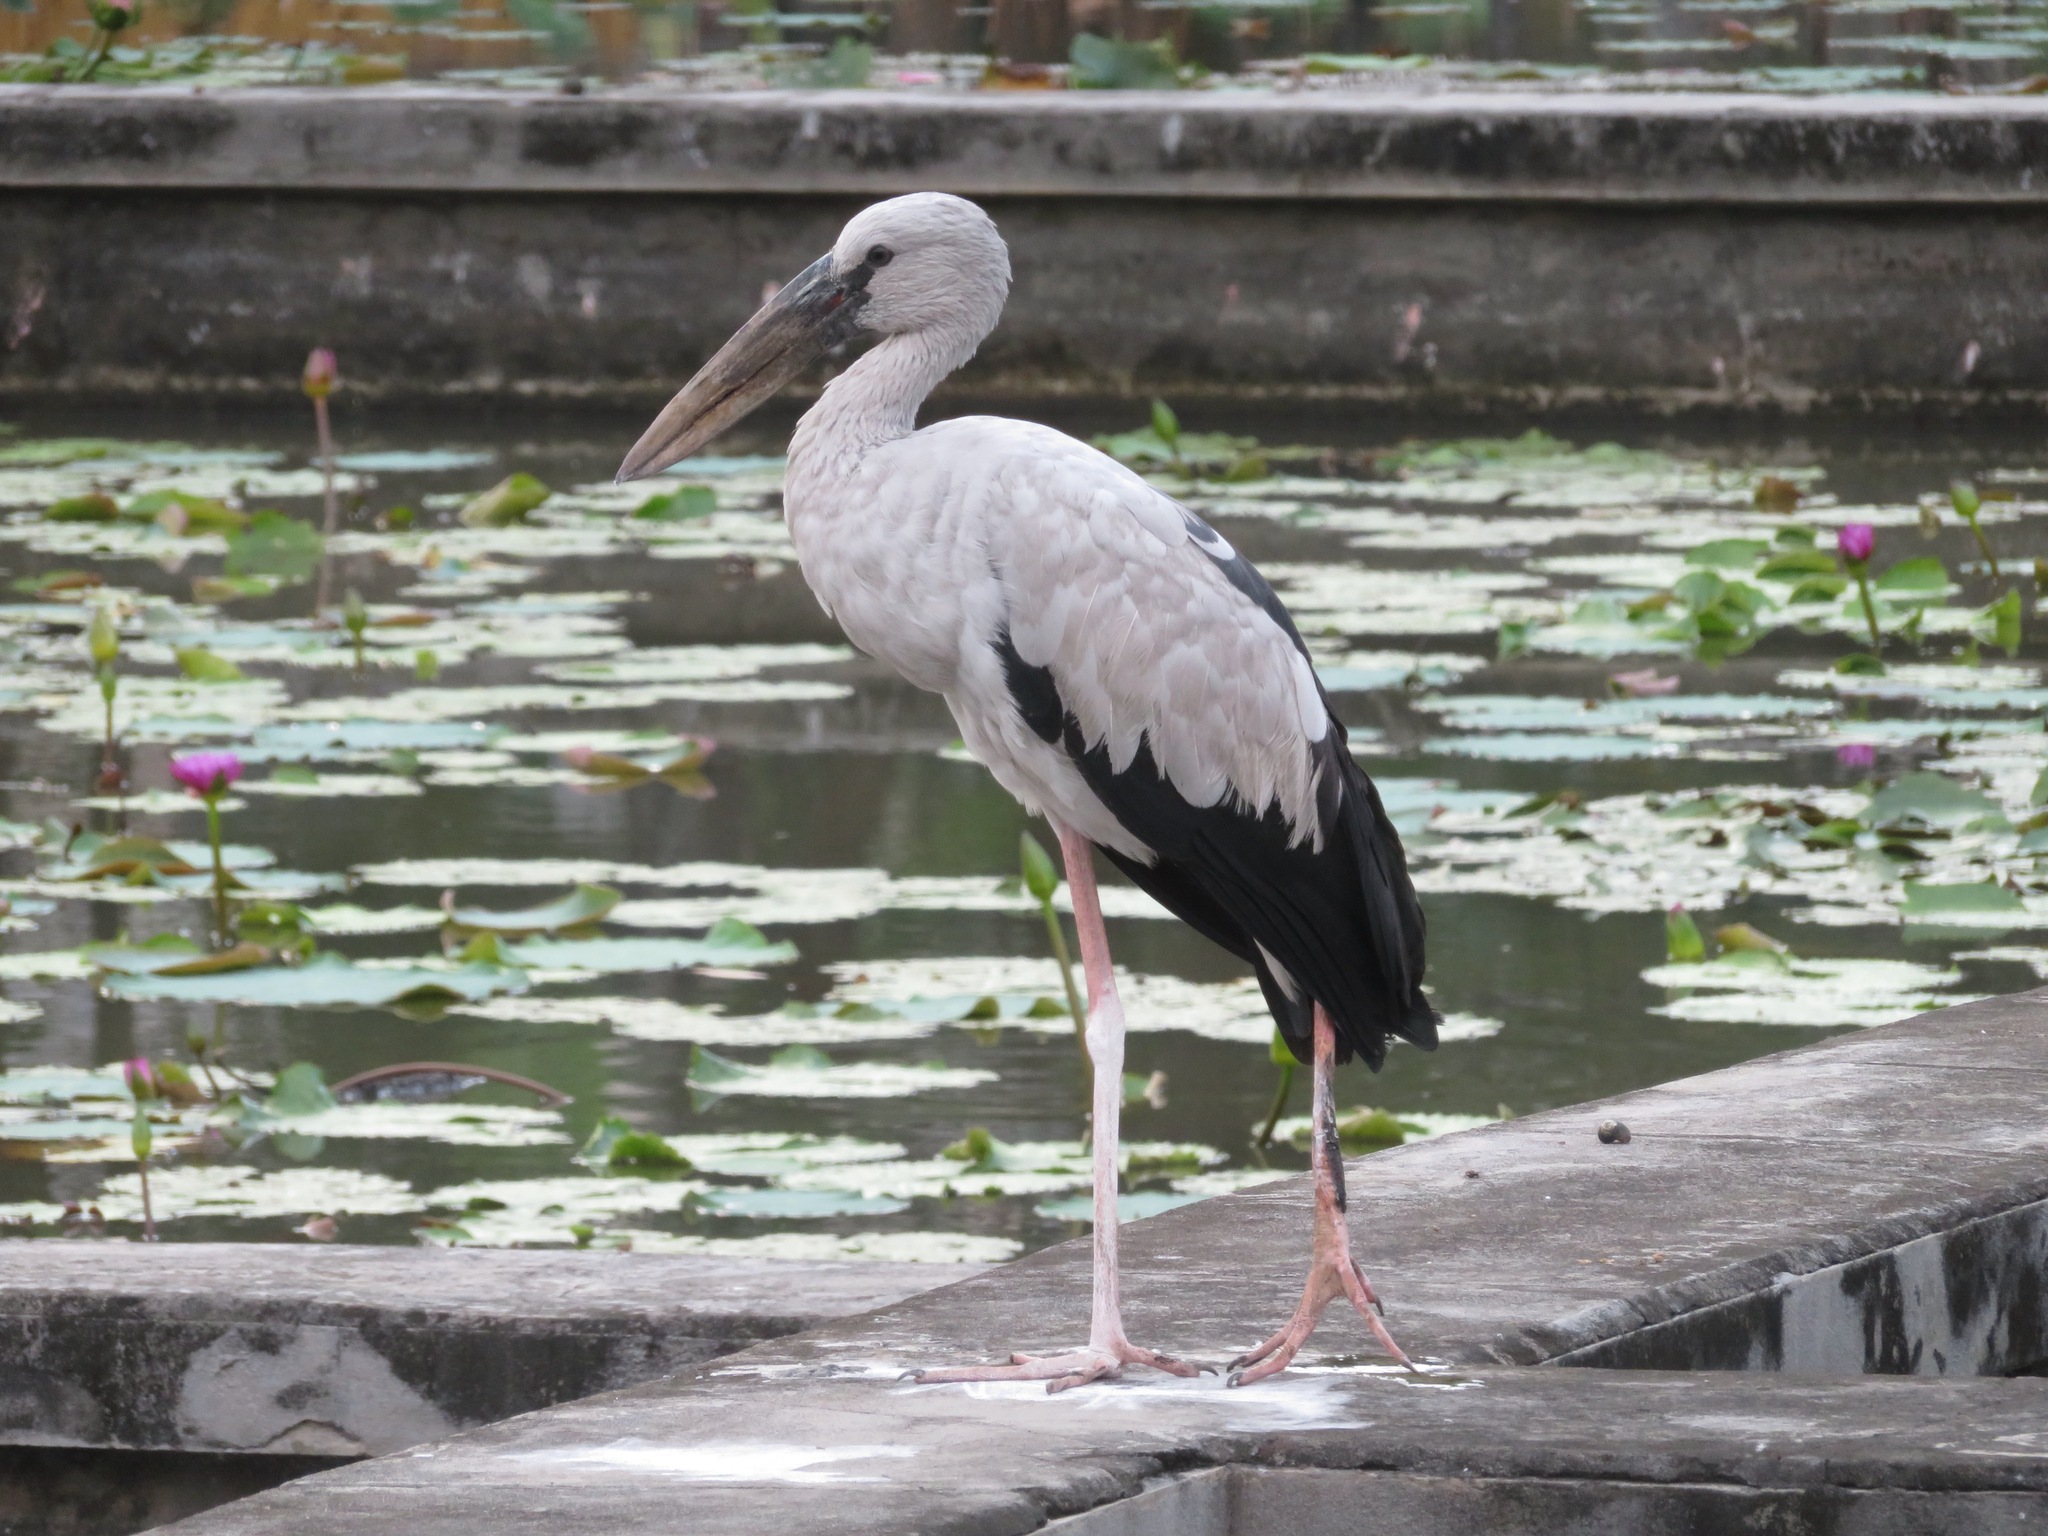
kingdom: Animalia
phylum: Chordata
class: Aves
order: Ciconiiformes
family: Ciconiidae
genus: Anastomus
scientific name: Anastomus oscitans
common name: Asian openbill
